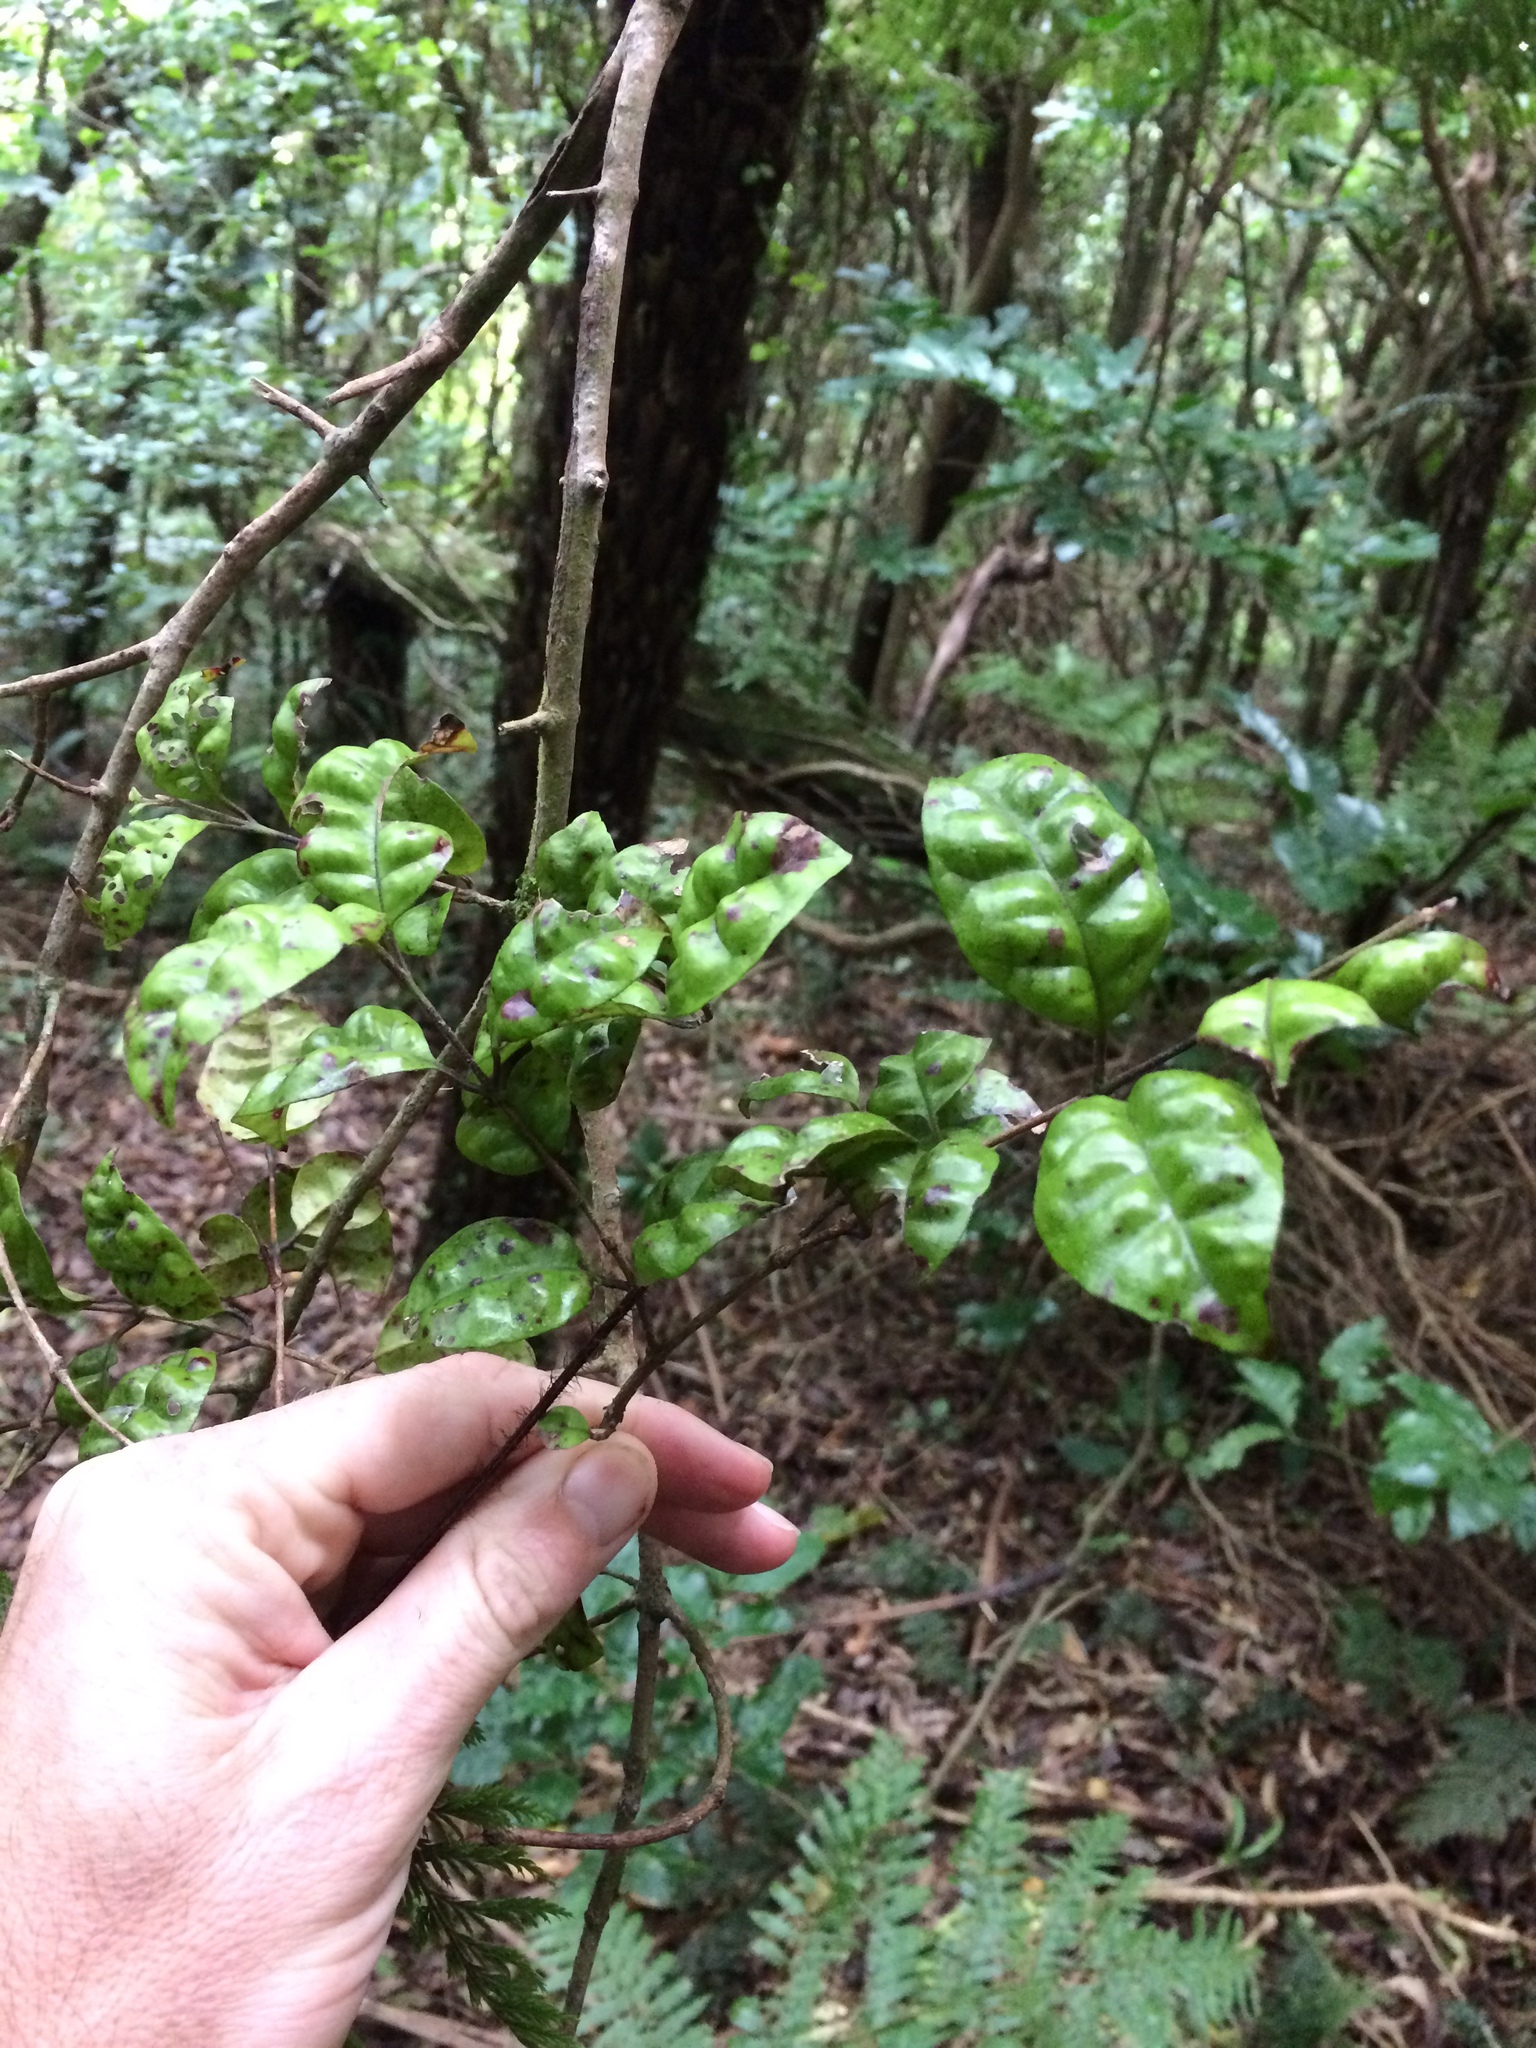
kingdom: Plantae
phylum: Tracheophyta
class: Magnoliopsida
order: Myrtales
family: Myrtaceae
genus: Lophomyrtus
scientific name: Lophomyrtus bullata
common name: Rama rama
